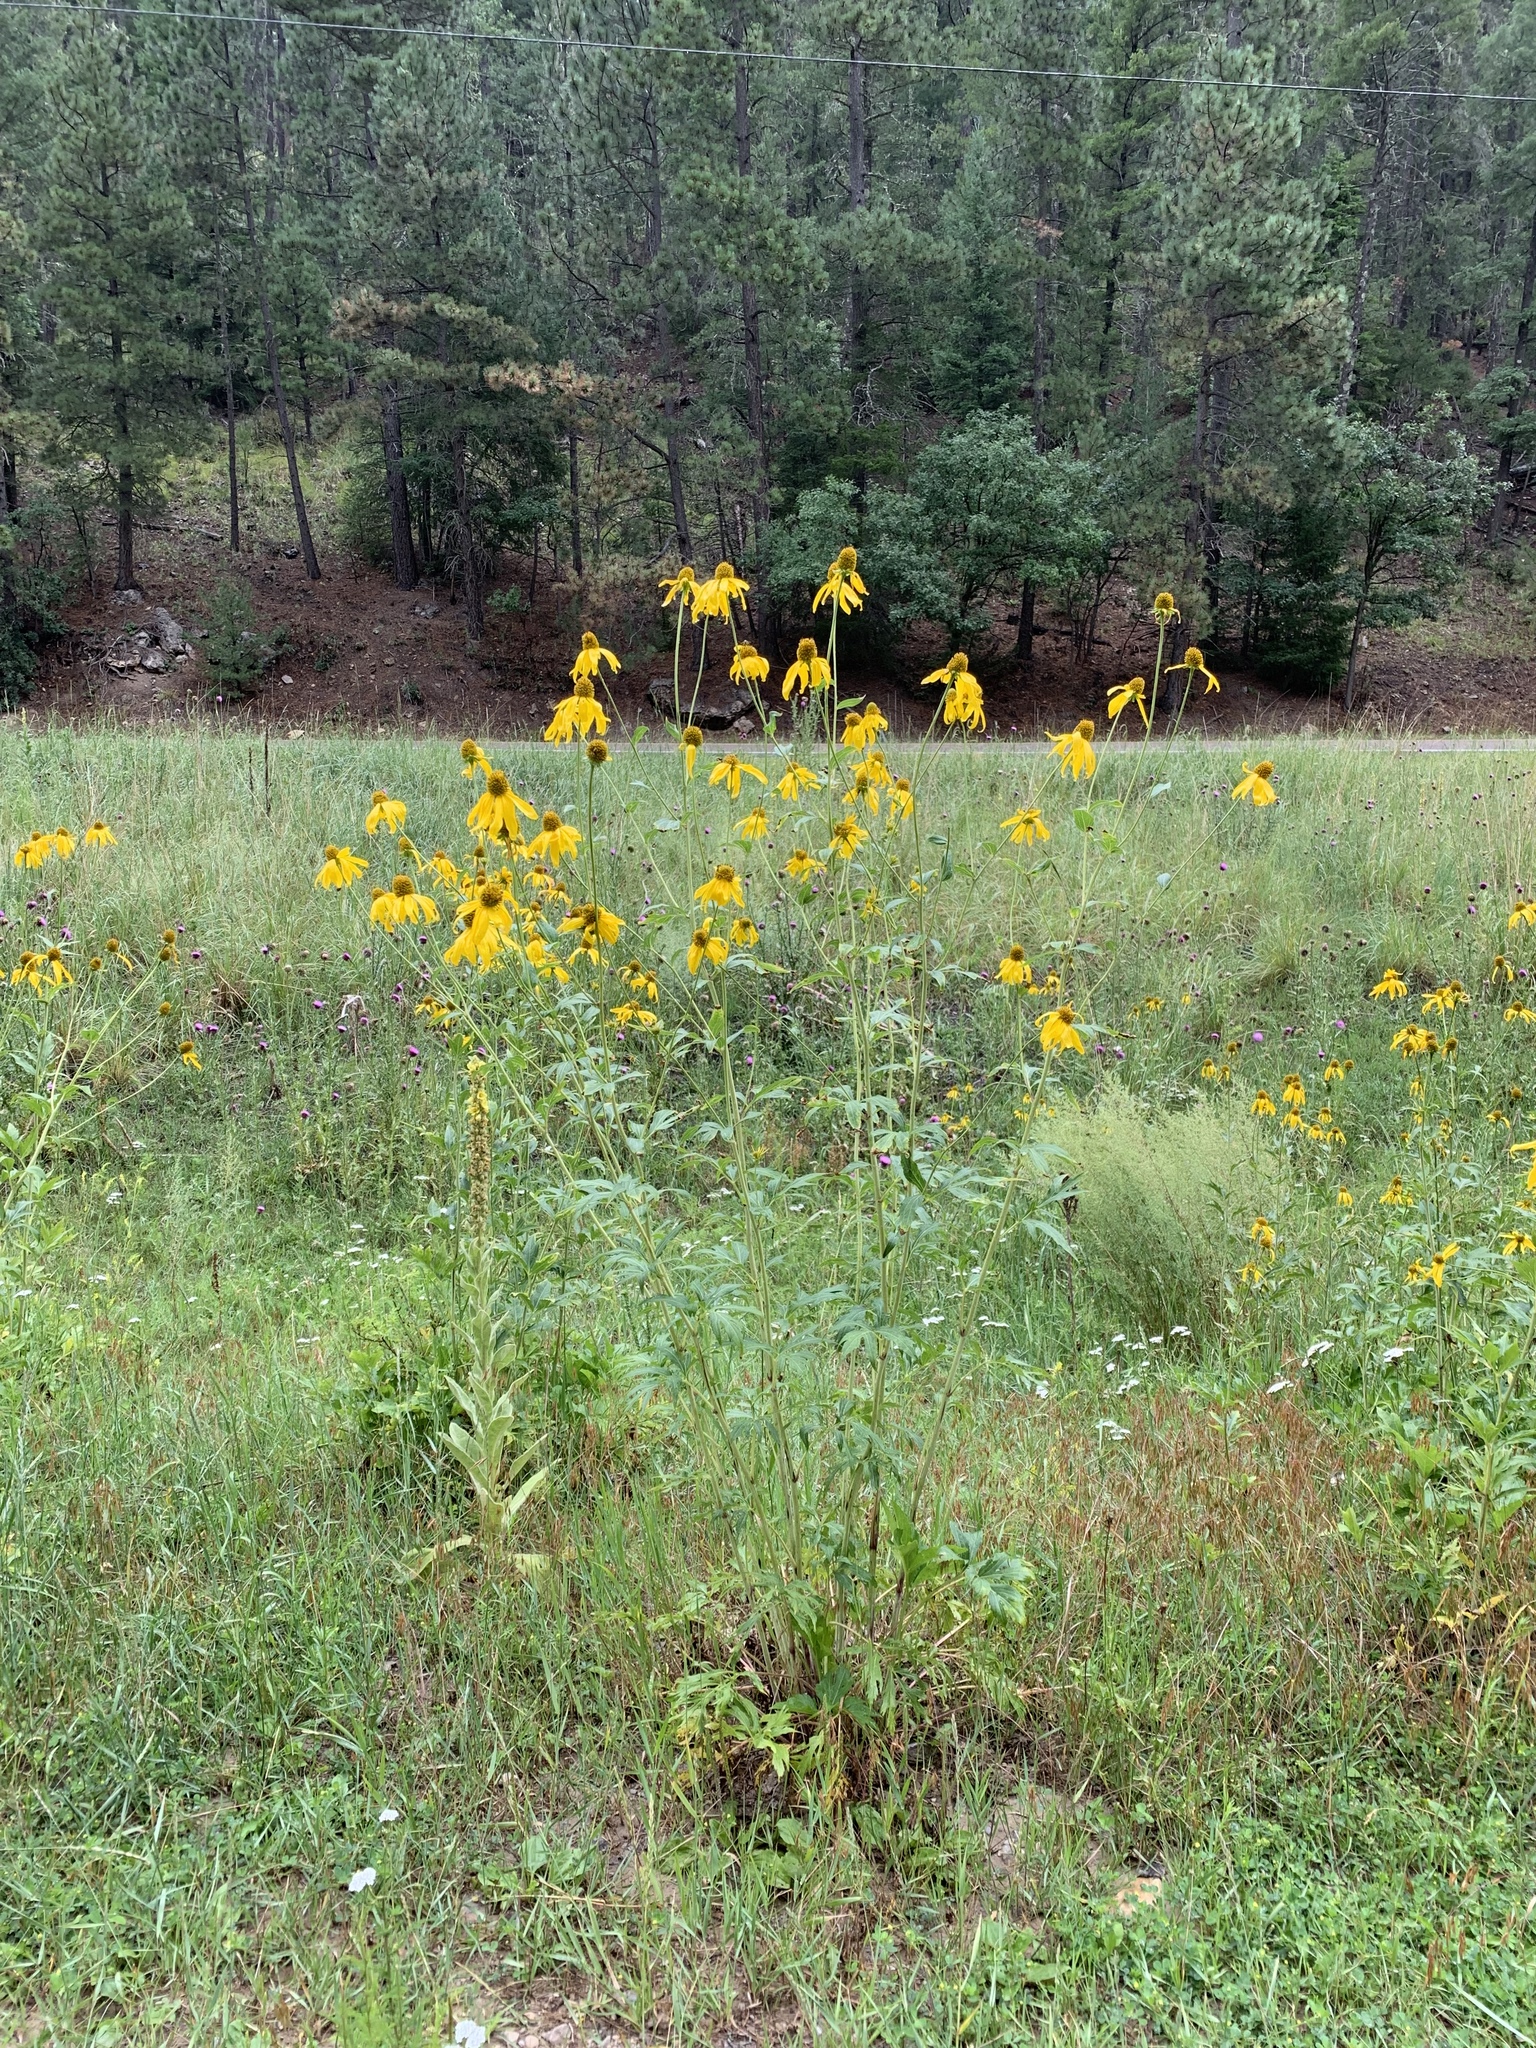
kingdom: Plantae
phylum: Tracheophyta
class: Magnoliopsida
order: Asterales
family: Asteraceae
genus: Rudbeckia
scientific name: Rudbeckia laciniata
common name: Coneflower
